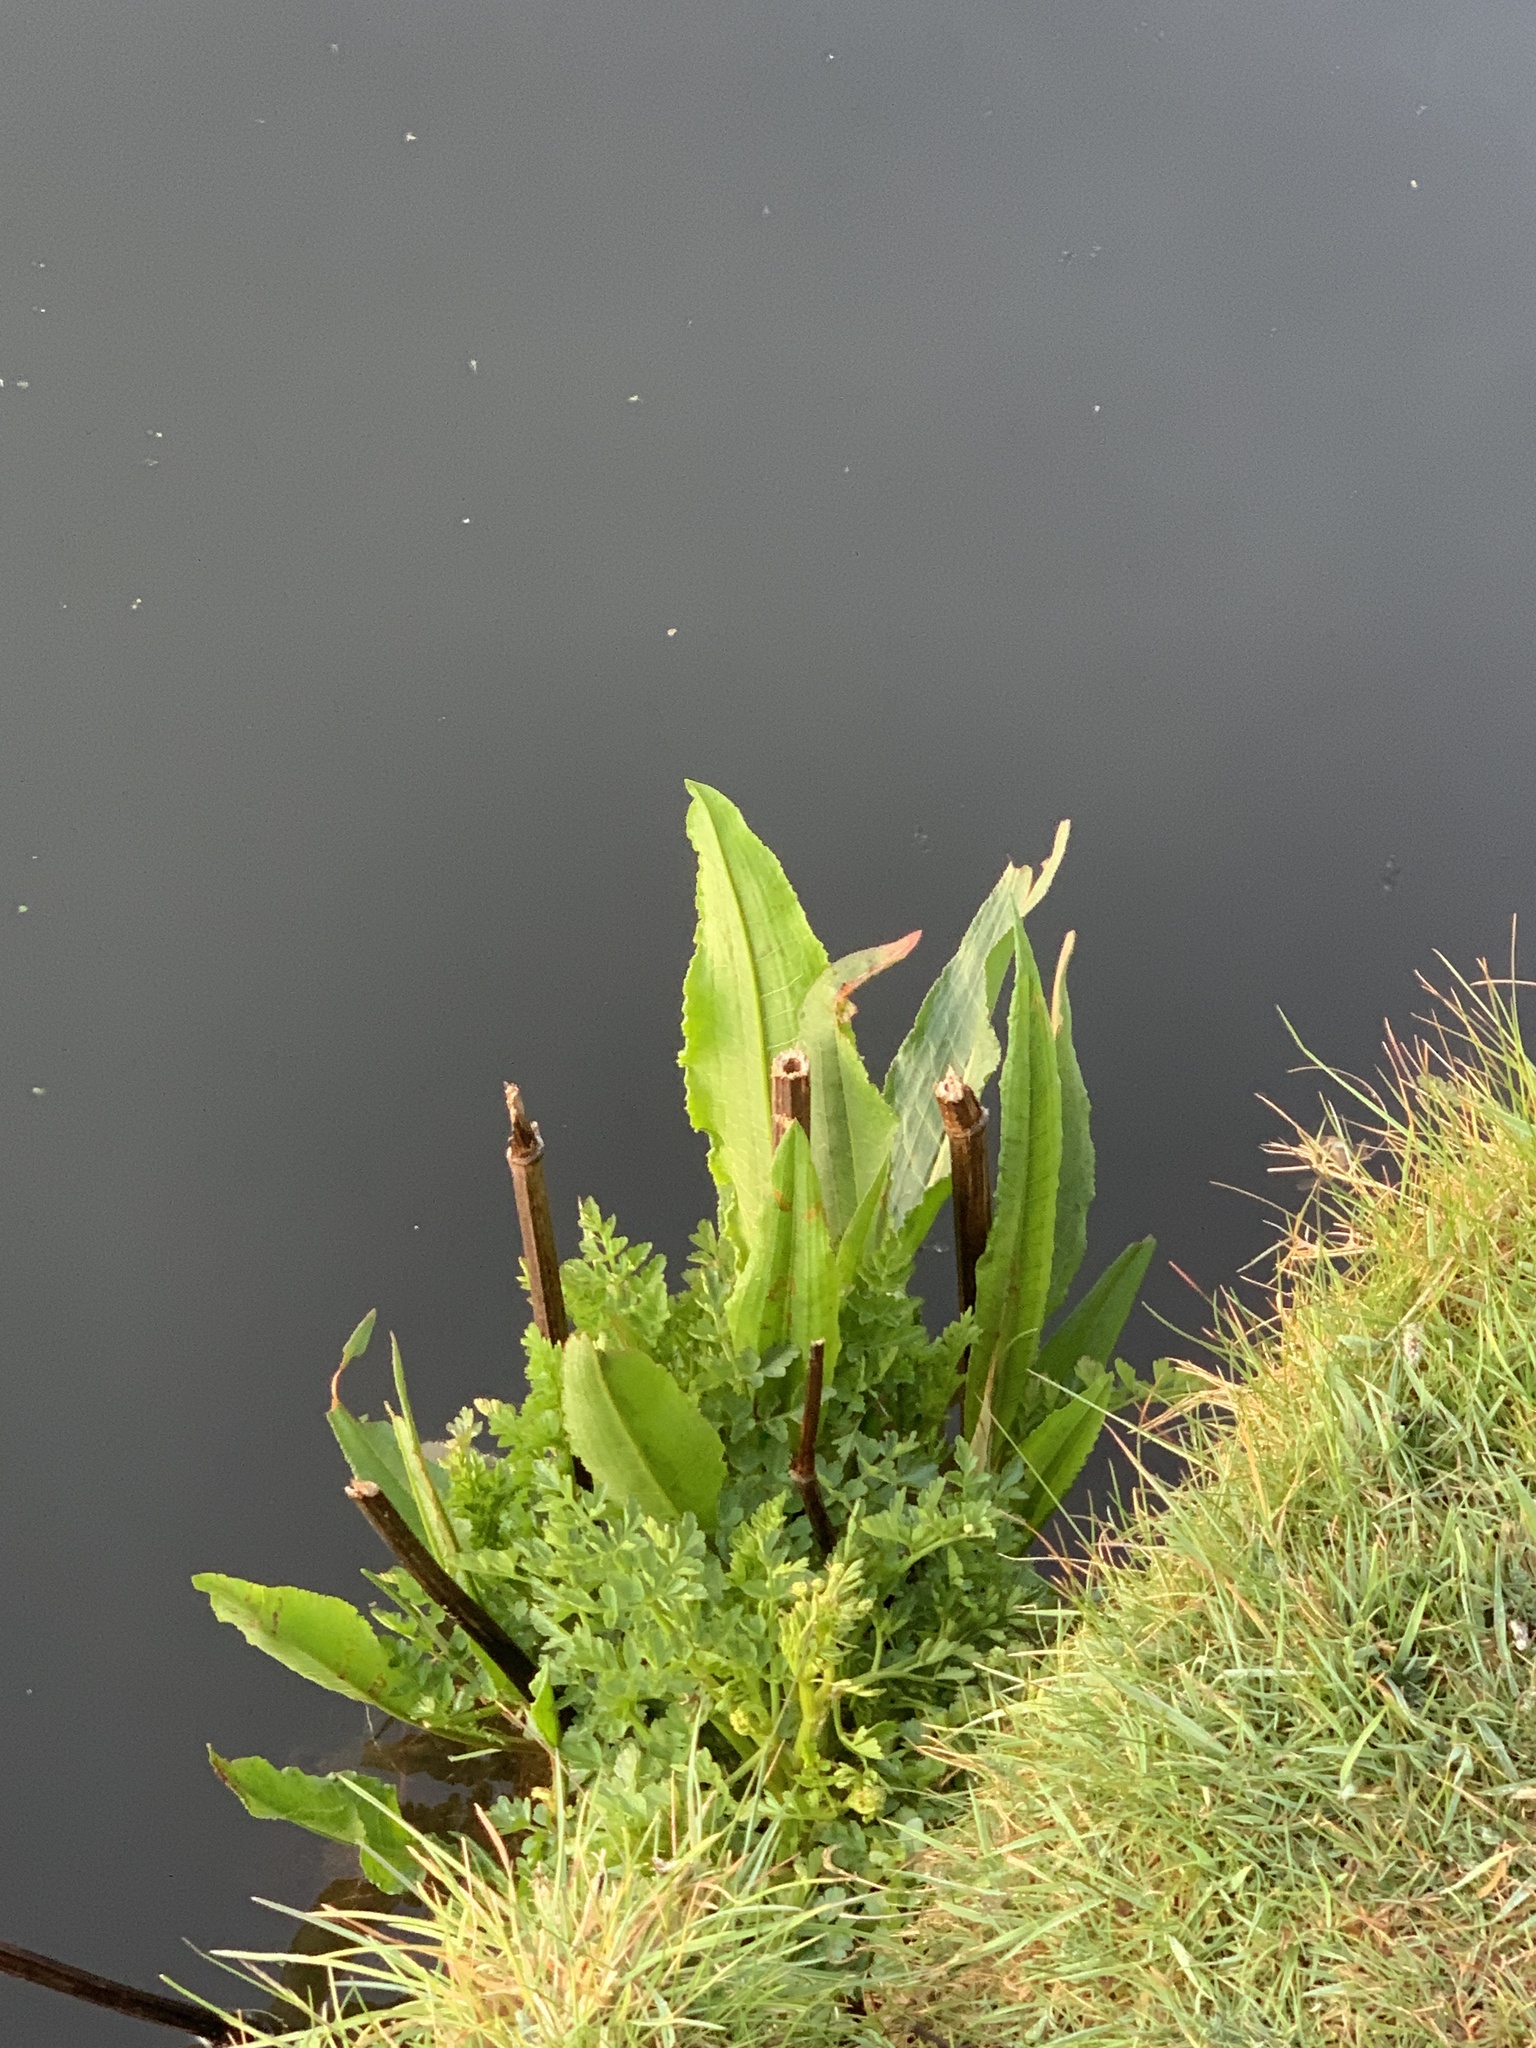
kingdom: Plantae
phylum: Tracheophyta
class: Magnoliopsida
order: Caryophyllales
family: Polygonaceae
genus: Rumex
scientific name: Rumex hydrolapathum
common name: Water dock
